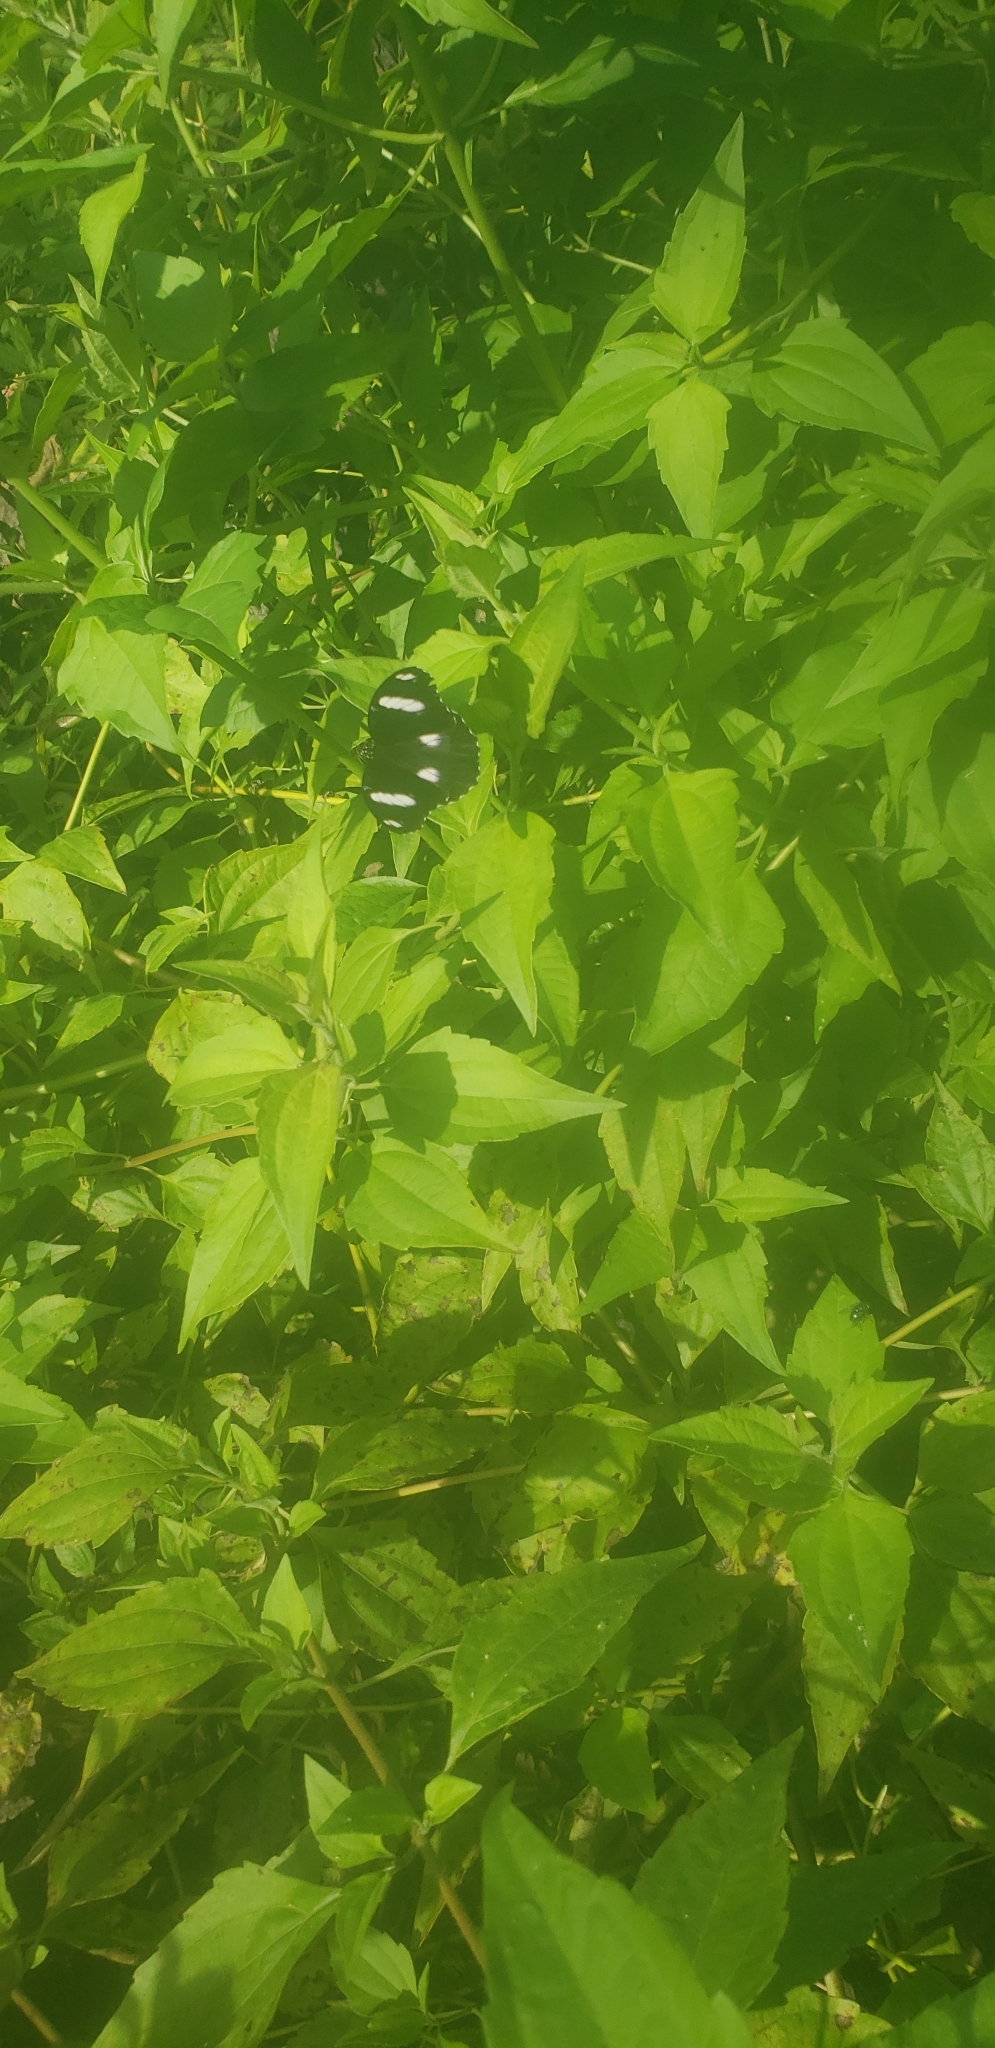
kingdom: Animalia
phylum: Arthropoda
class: Insecta
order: Lepidoptera
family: Nymphalidae
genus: Hypolimnas
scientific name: Hypolimnas bolina
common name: Great eggfly
